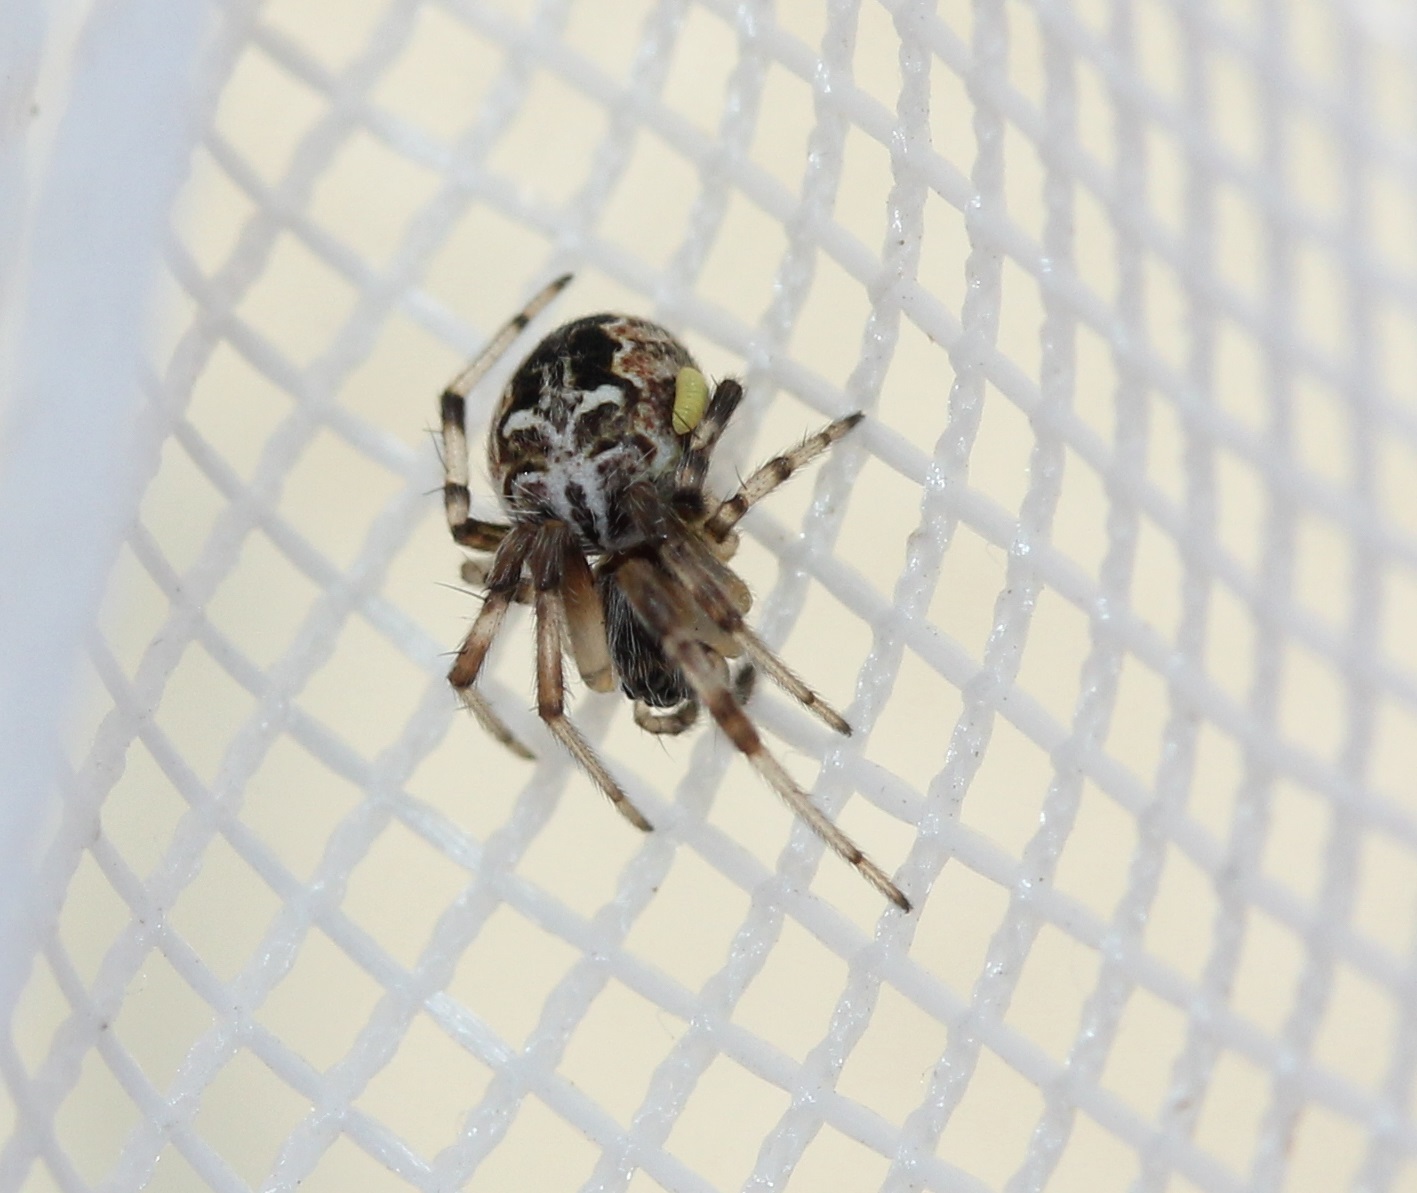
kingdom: Animalia
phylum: Arthropoda
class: Arachnida
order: Araneae
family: Araneidae
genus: Metepeira
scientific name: Metepeira labyrinthea
